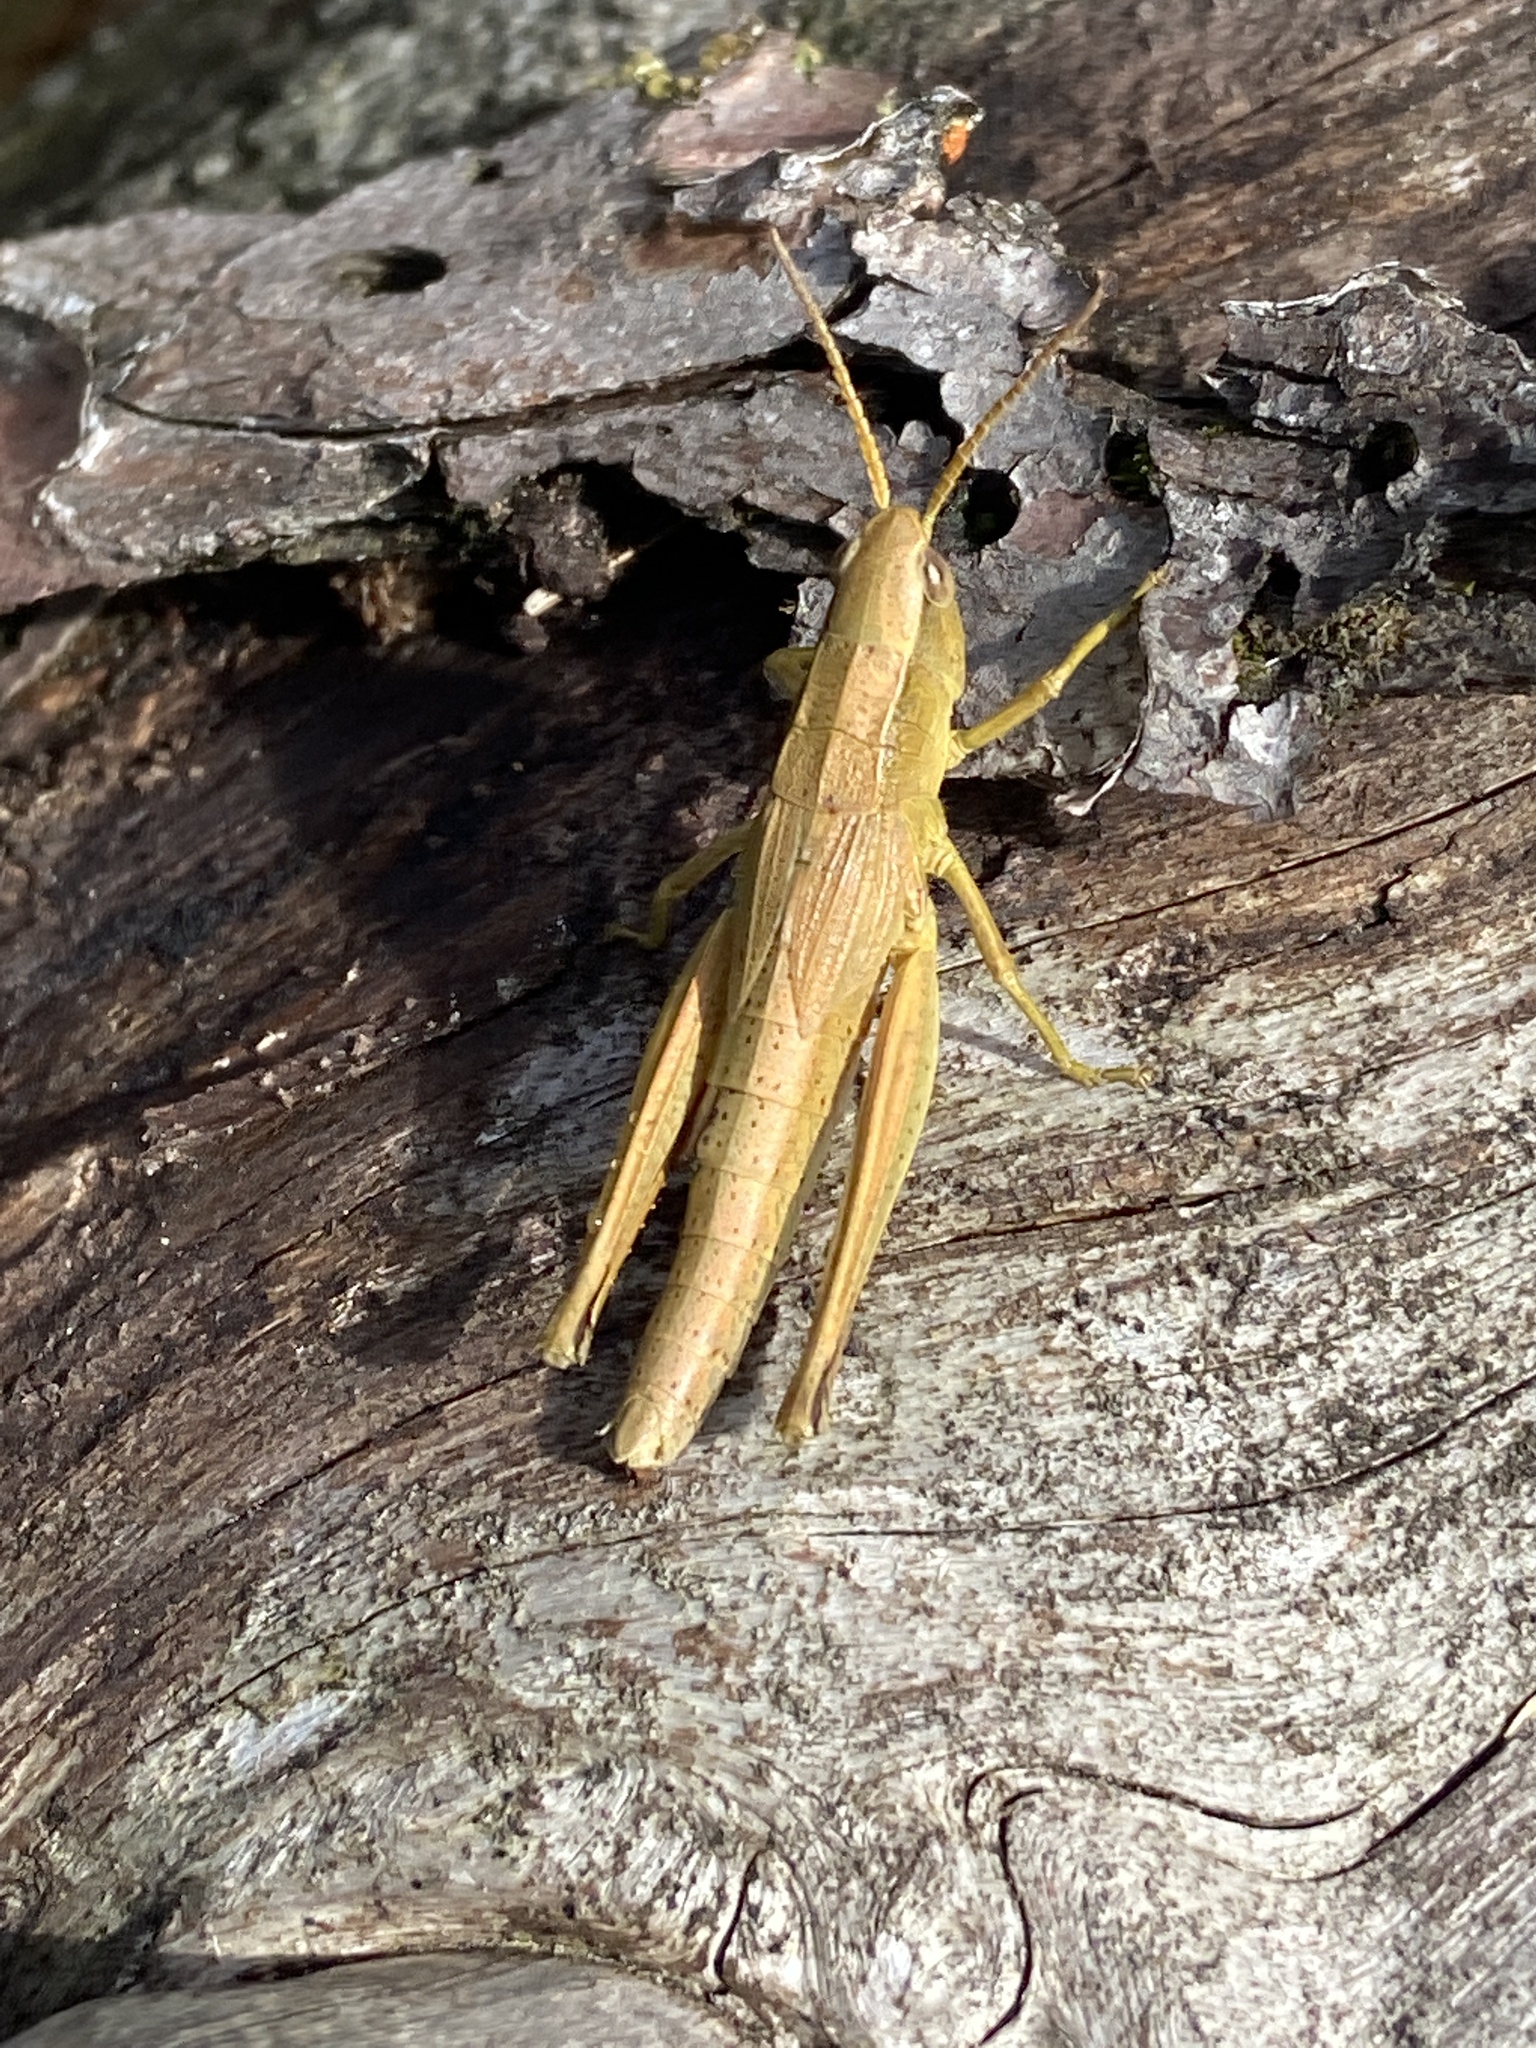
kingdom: Animalia
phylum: Arthropoda
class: Insecta
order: Orthoptera
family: Acrididae
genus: Chrysochraon
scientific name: Chrysochraon dispar
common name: Large gold grasshopper
